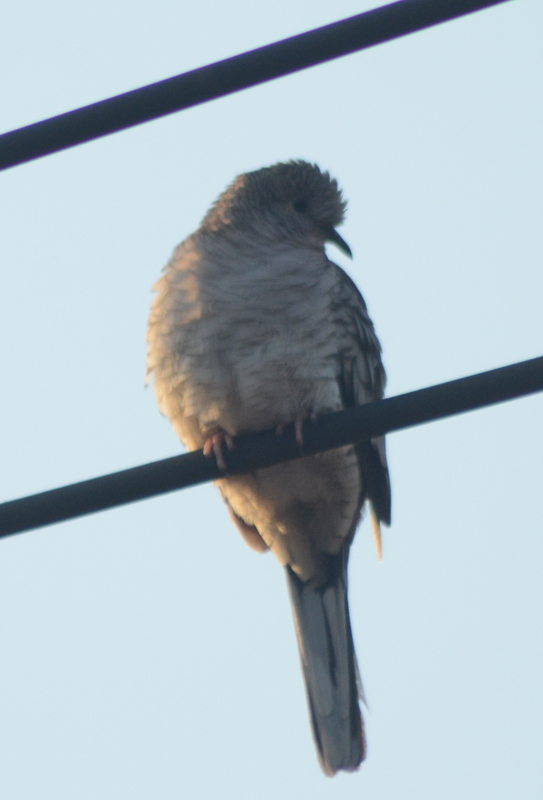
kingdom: Animalia
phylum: Chordata
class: Aves
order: Columbiformes
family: Columbidae
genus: Columbina
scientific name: Columbina inca
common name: Inca dove
